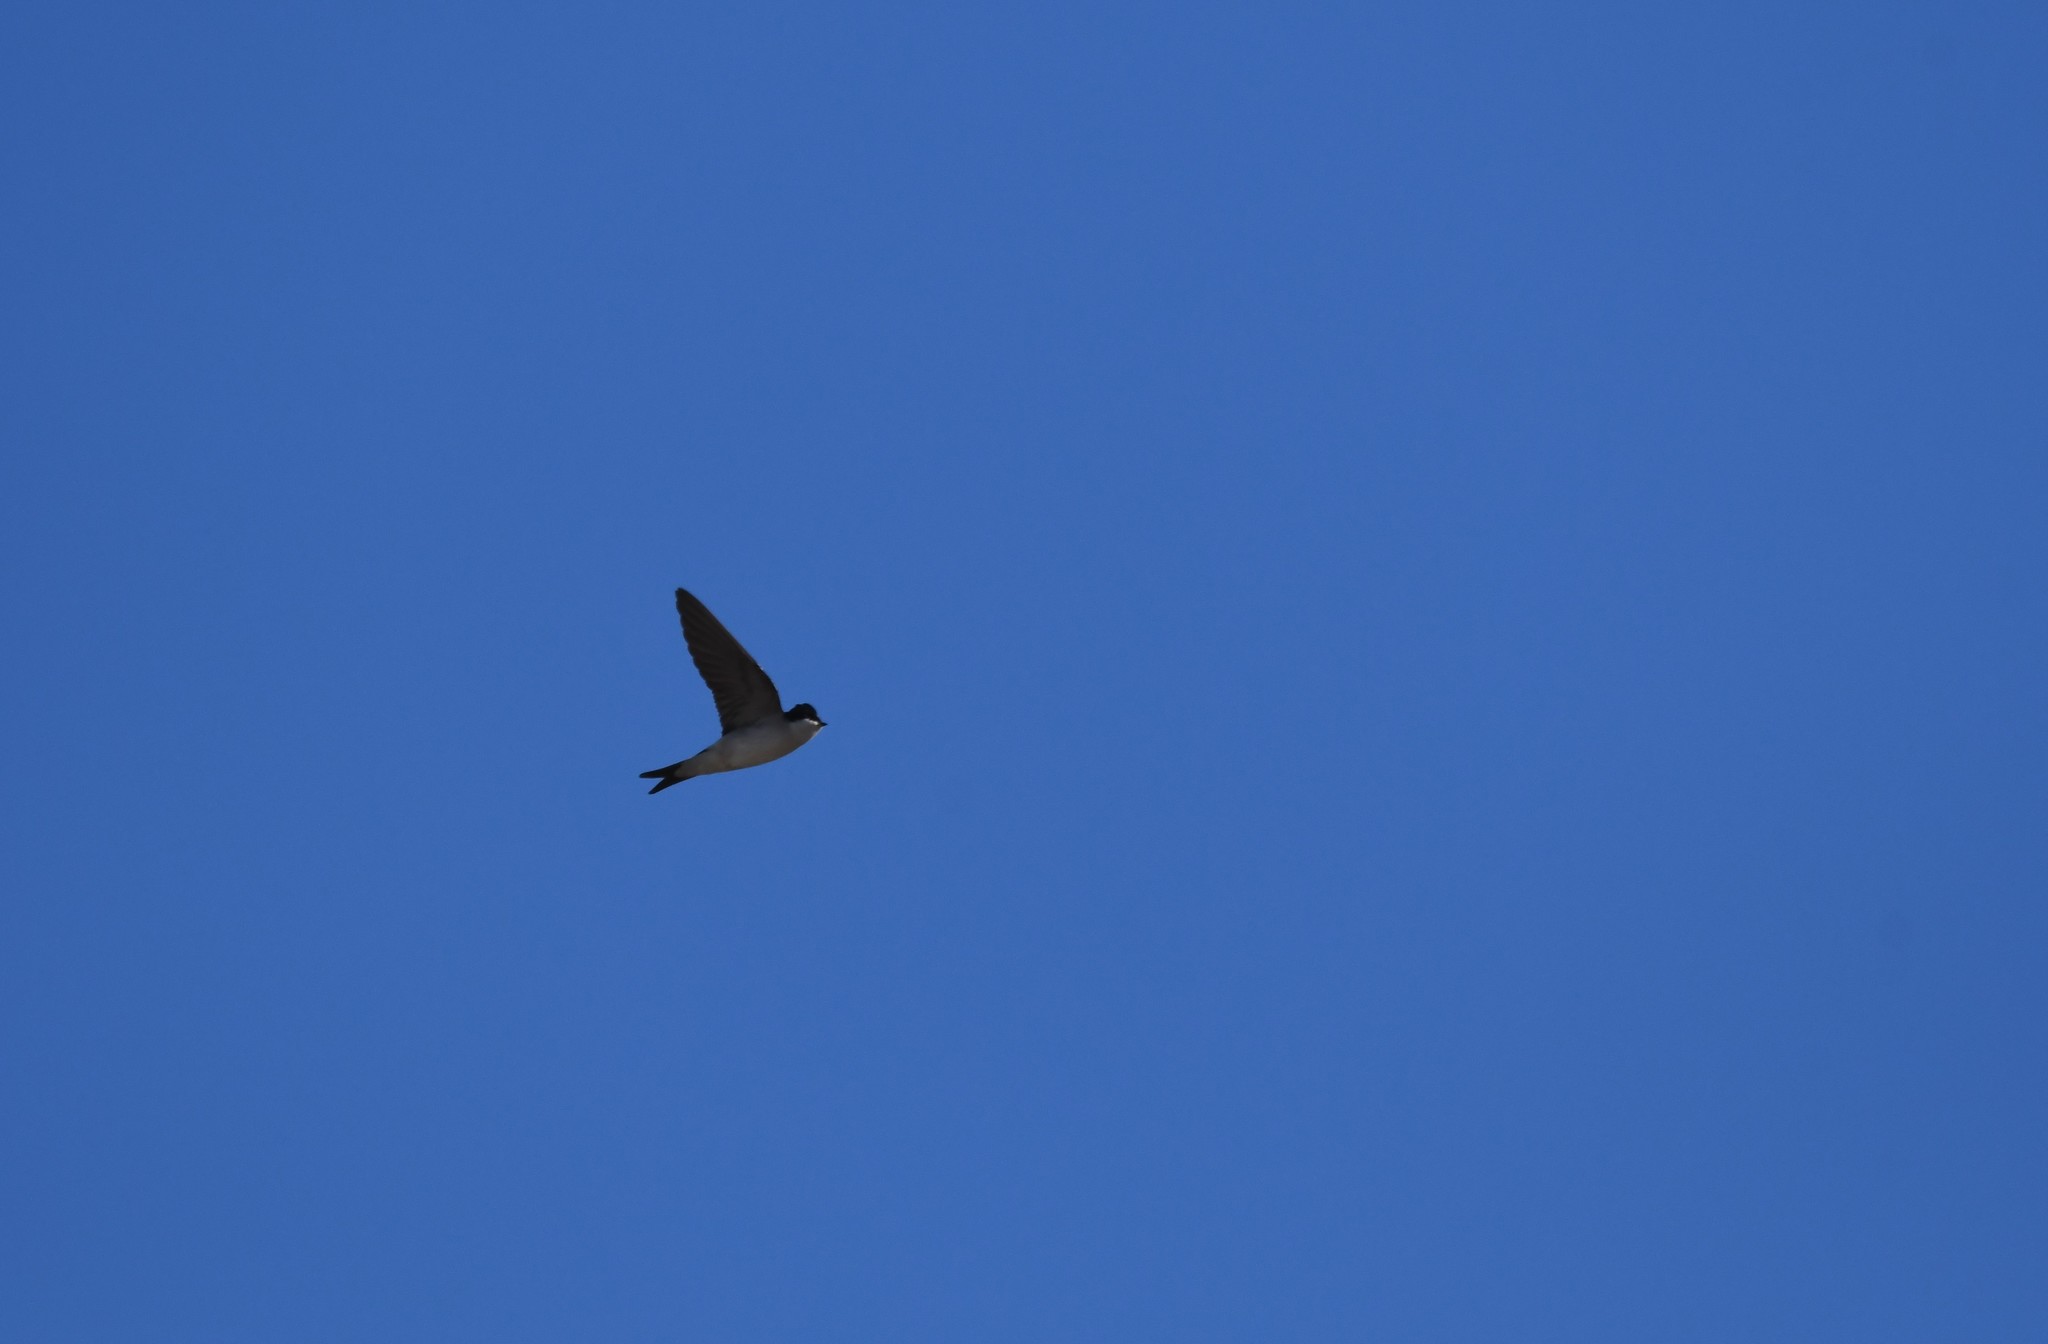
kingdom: Animalia
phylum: Chordata
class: Aves
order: Passeriformes
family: Hirundinidae
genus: Delichon
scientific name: Delichon urbicum
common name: Common house martin
